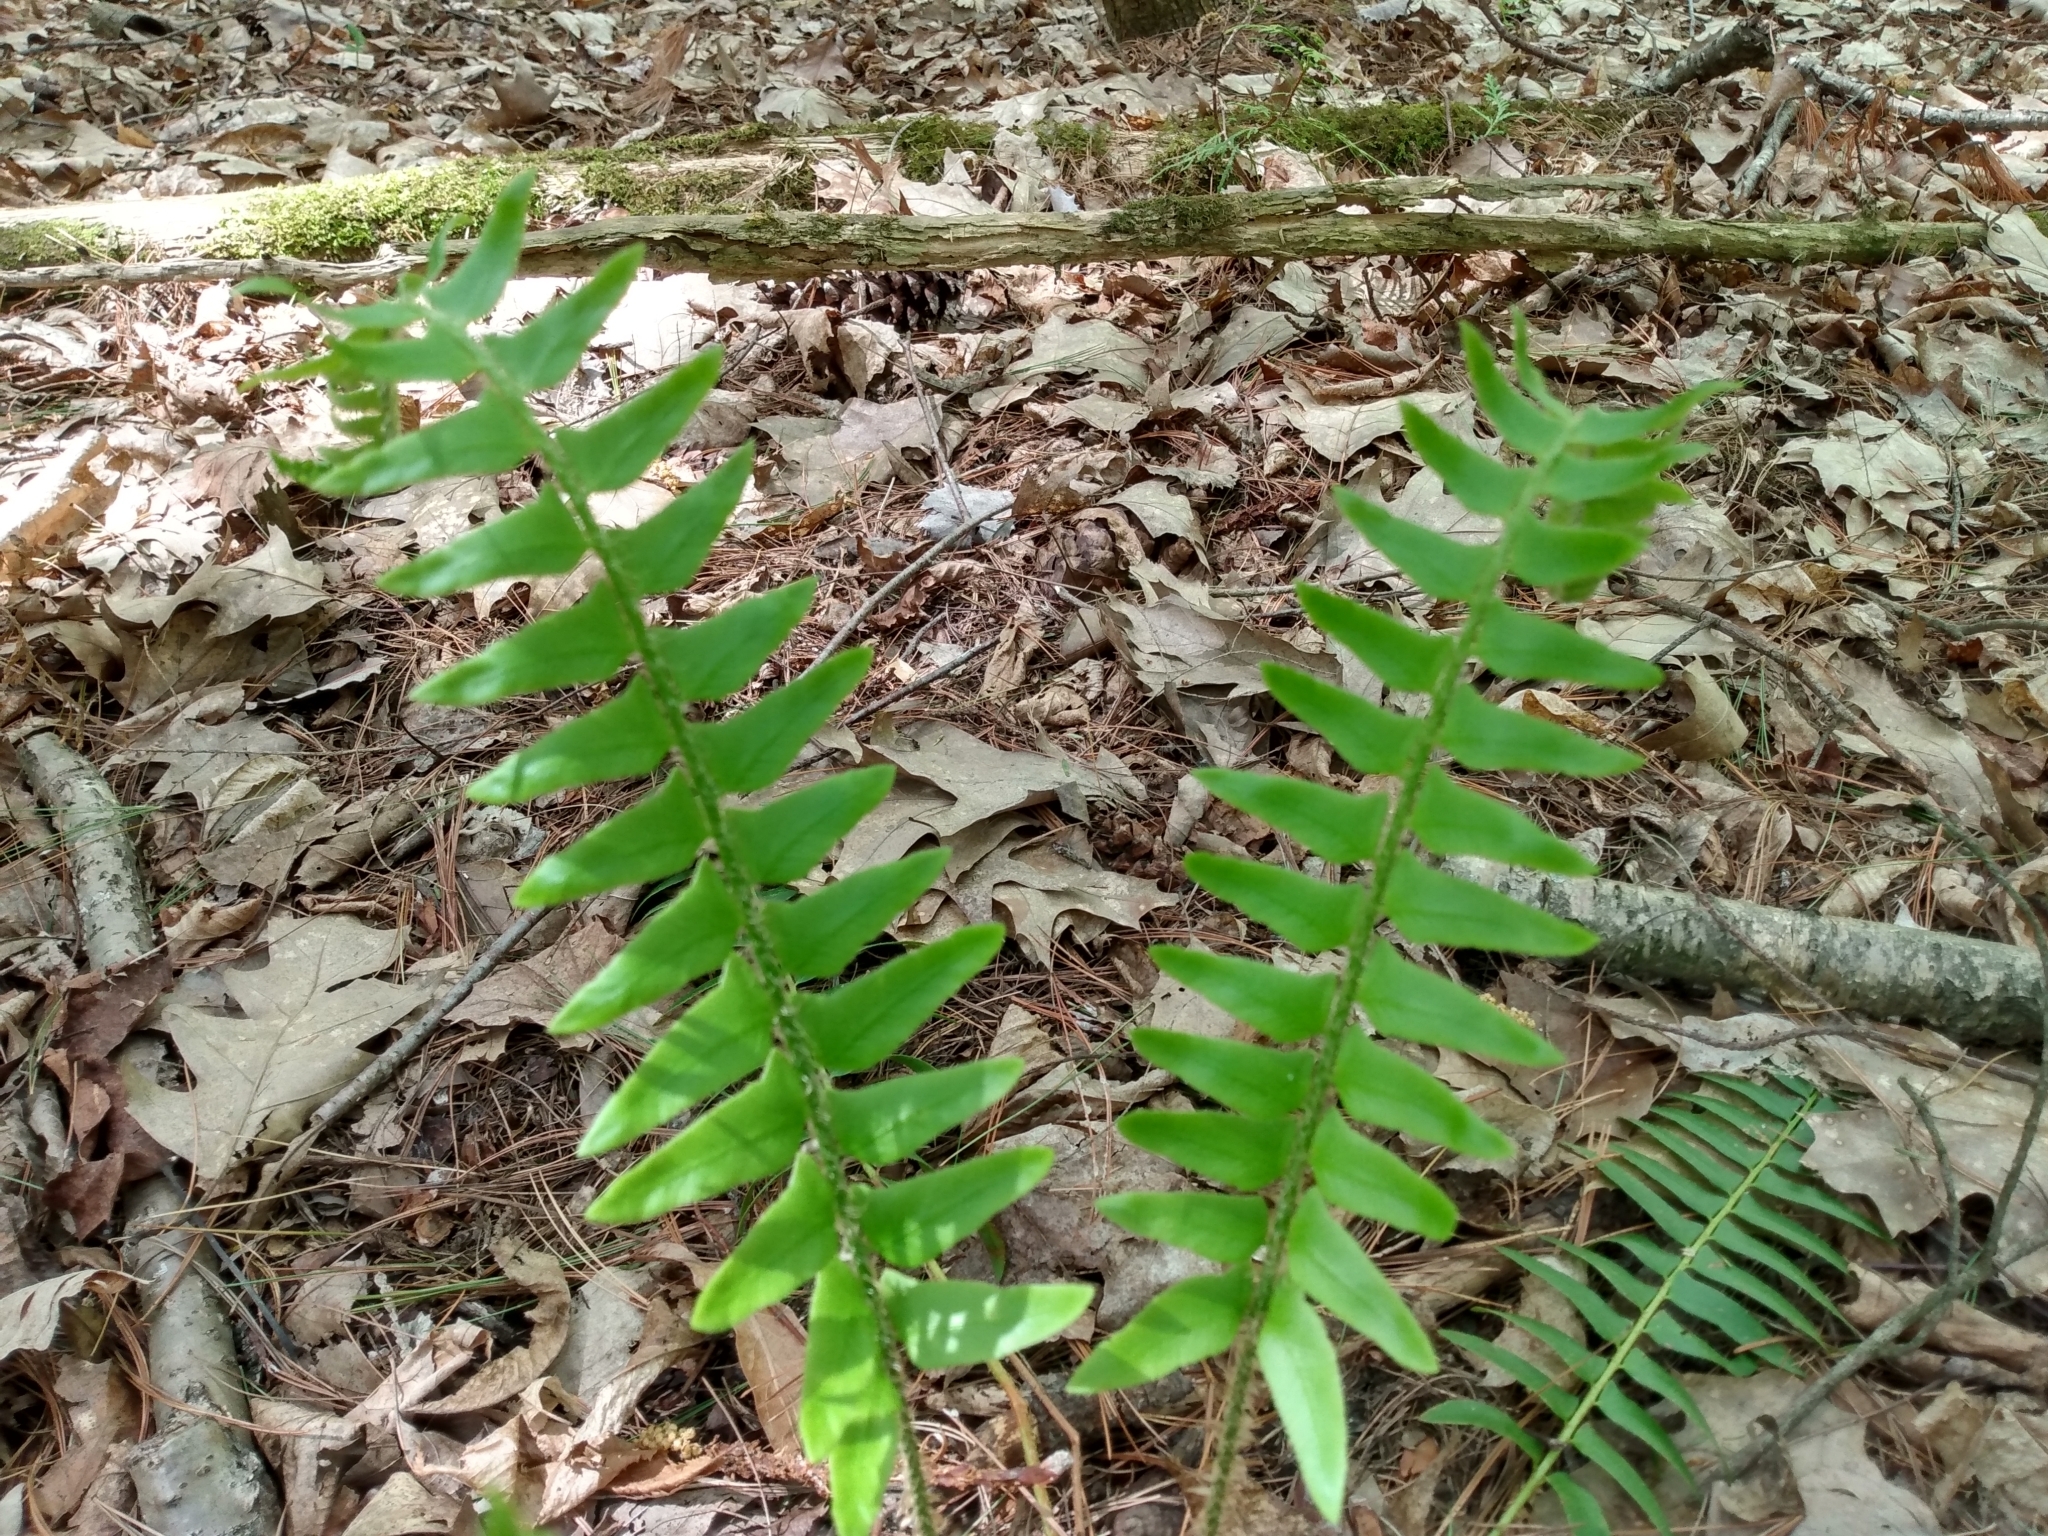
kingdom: Plantae
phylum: Tracheophyta
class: Polypodiopsida
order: Polypodiales
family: Dryopteridaceae
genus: Polystichum
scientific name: Polystichum acrostichoides
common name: Christmas fern
